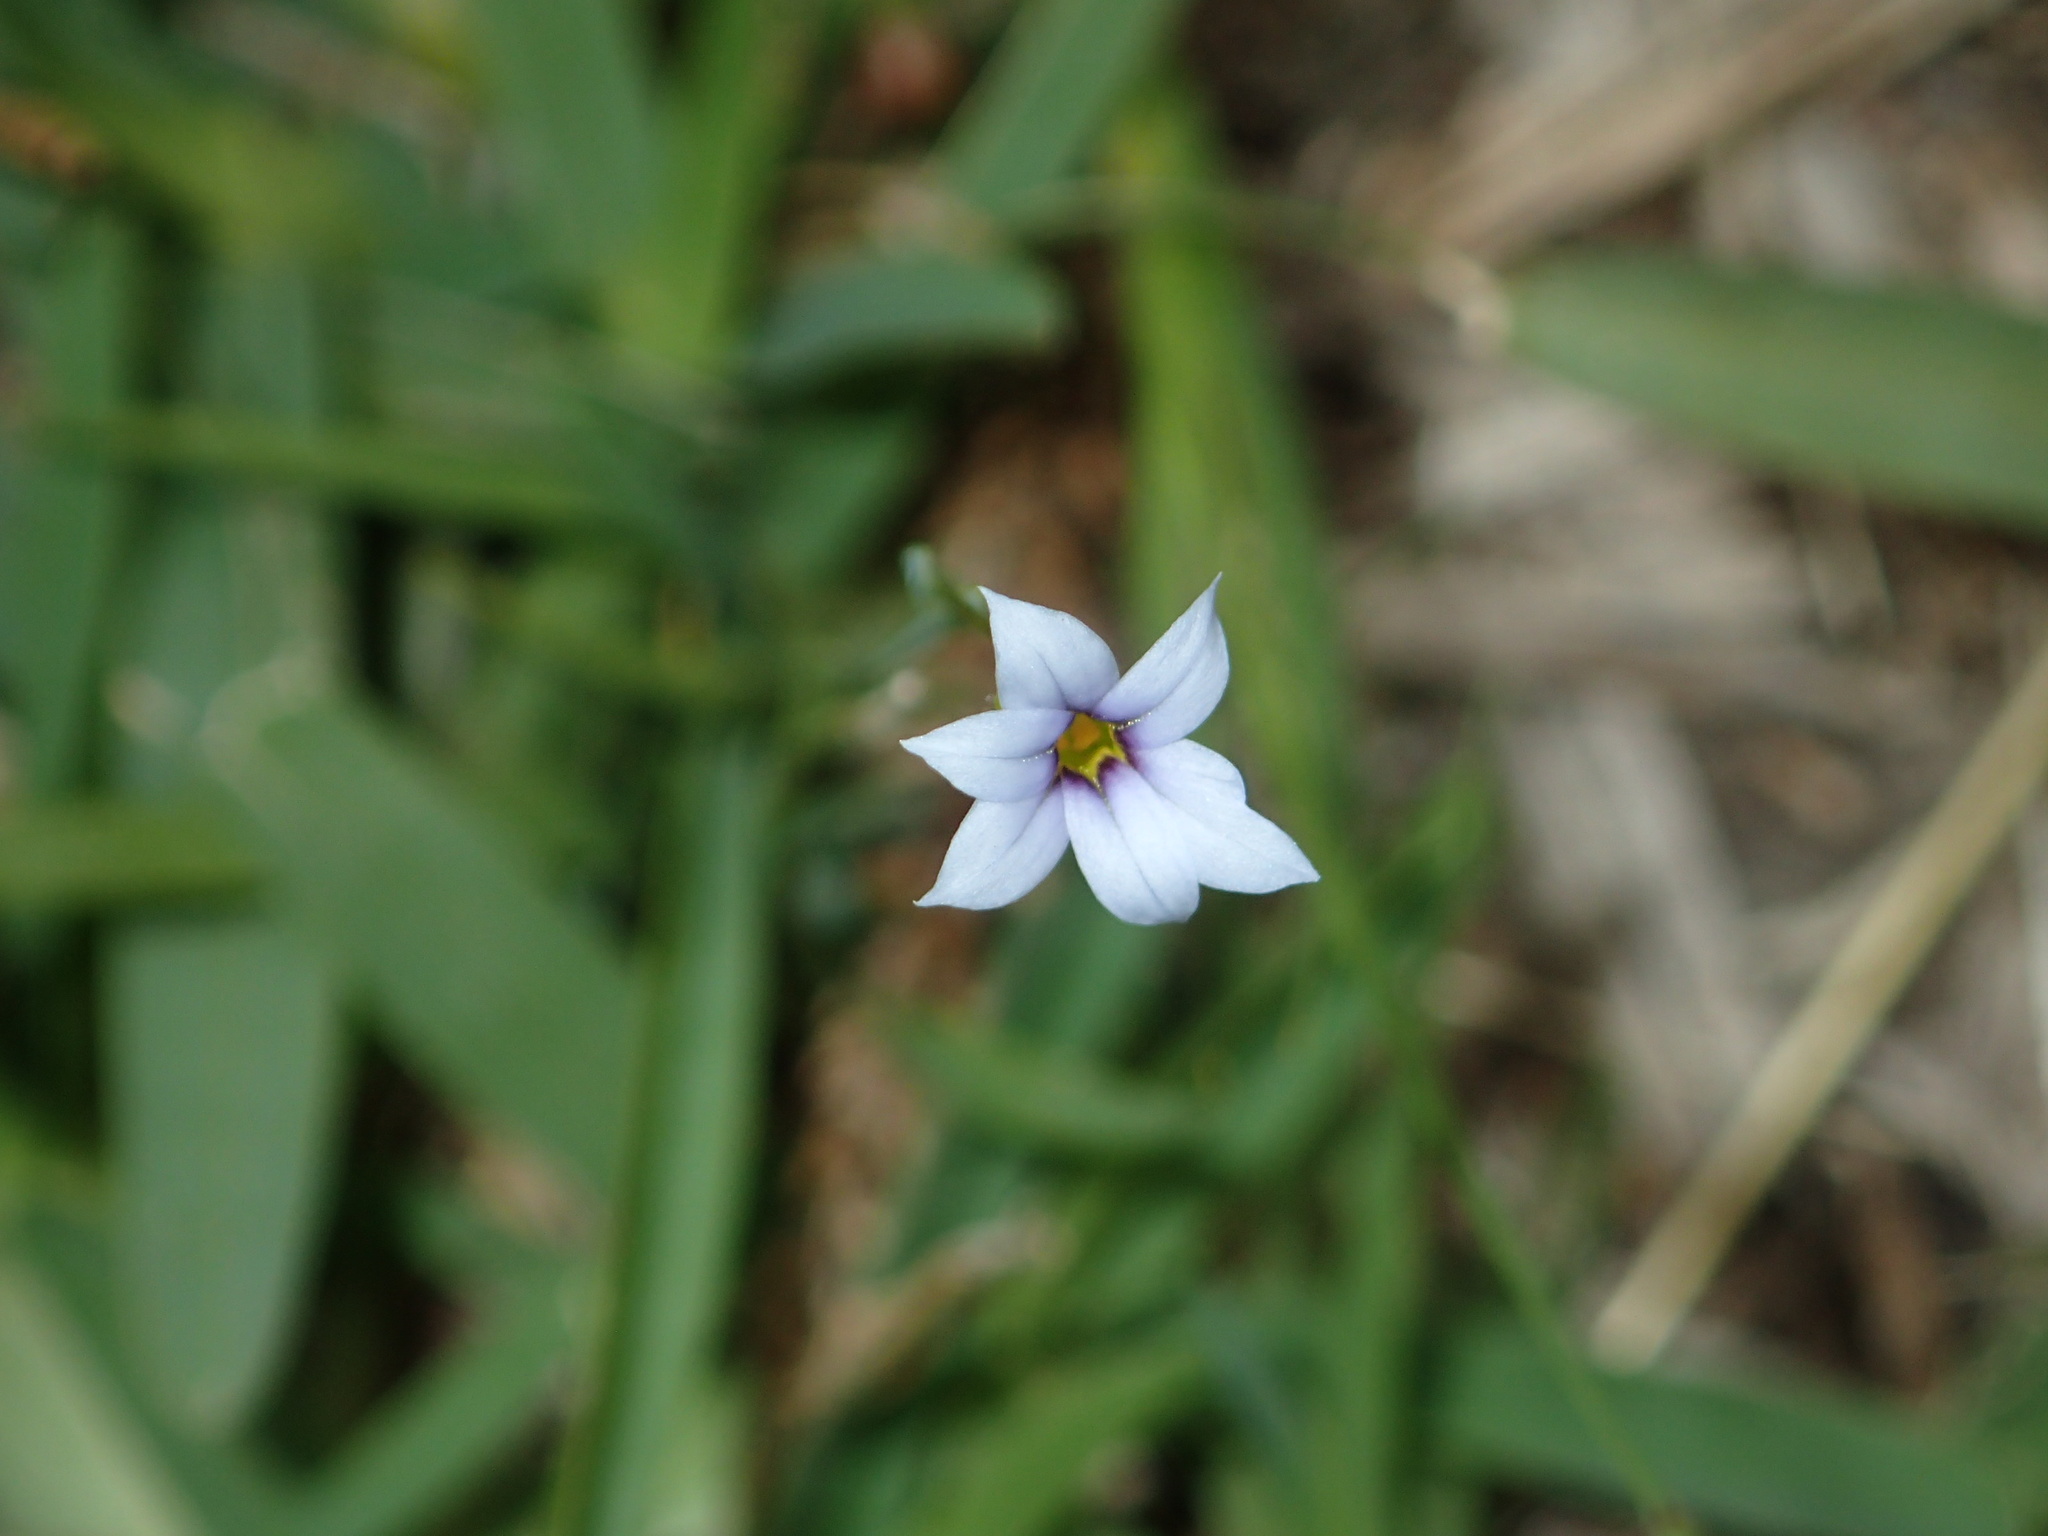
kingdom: Plantae
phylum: Tracheophyta
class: Liliopsida
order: Asparagales
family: Iridaceae
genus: Sisyrinchium
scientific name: Sisyrinchium micranthum
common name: Bermuda pigroot
